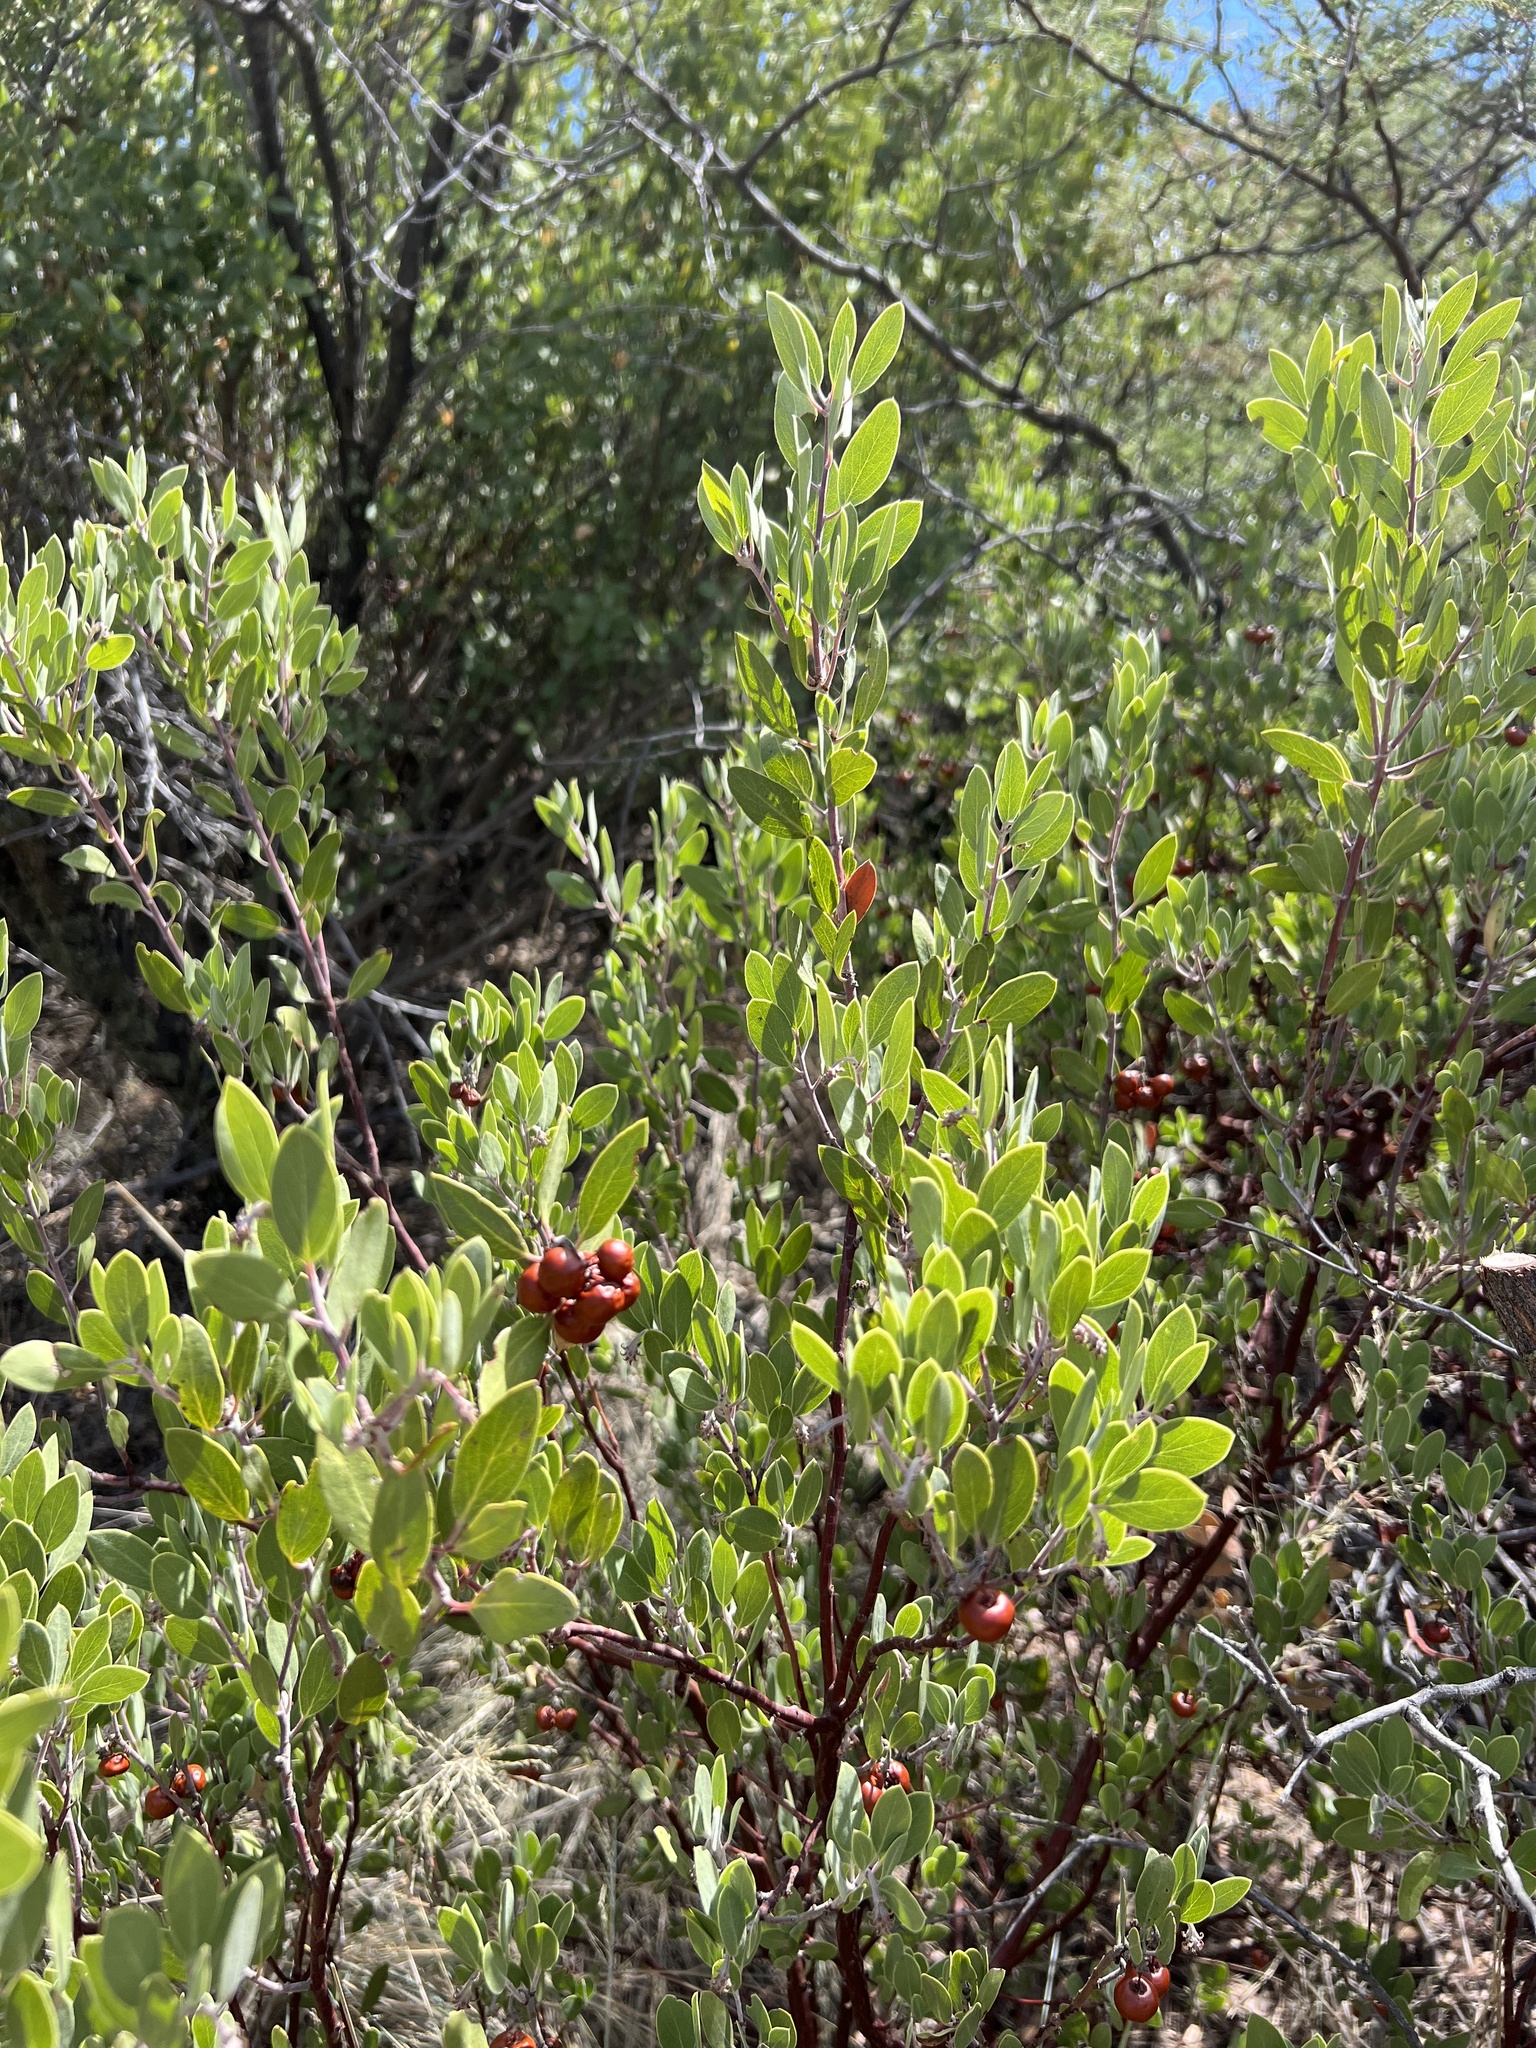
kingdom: Plantae
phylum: Tracheophyta
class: Magnoliopsida
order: Ericales
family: Ericaceae
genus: Arctostaphylos
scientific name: Arctostaphylos pungens
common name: Mexican manzanita
